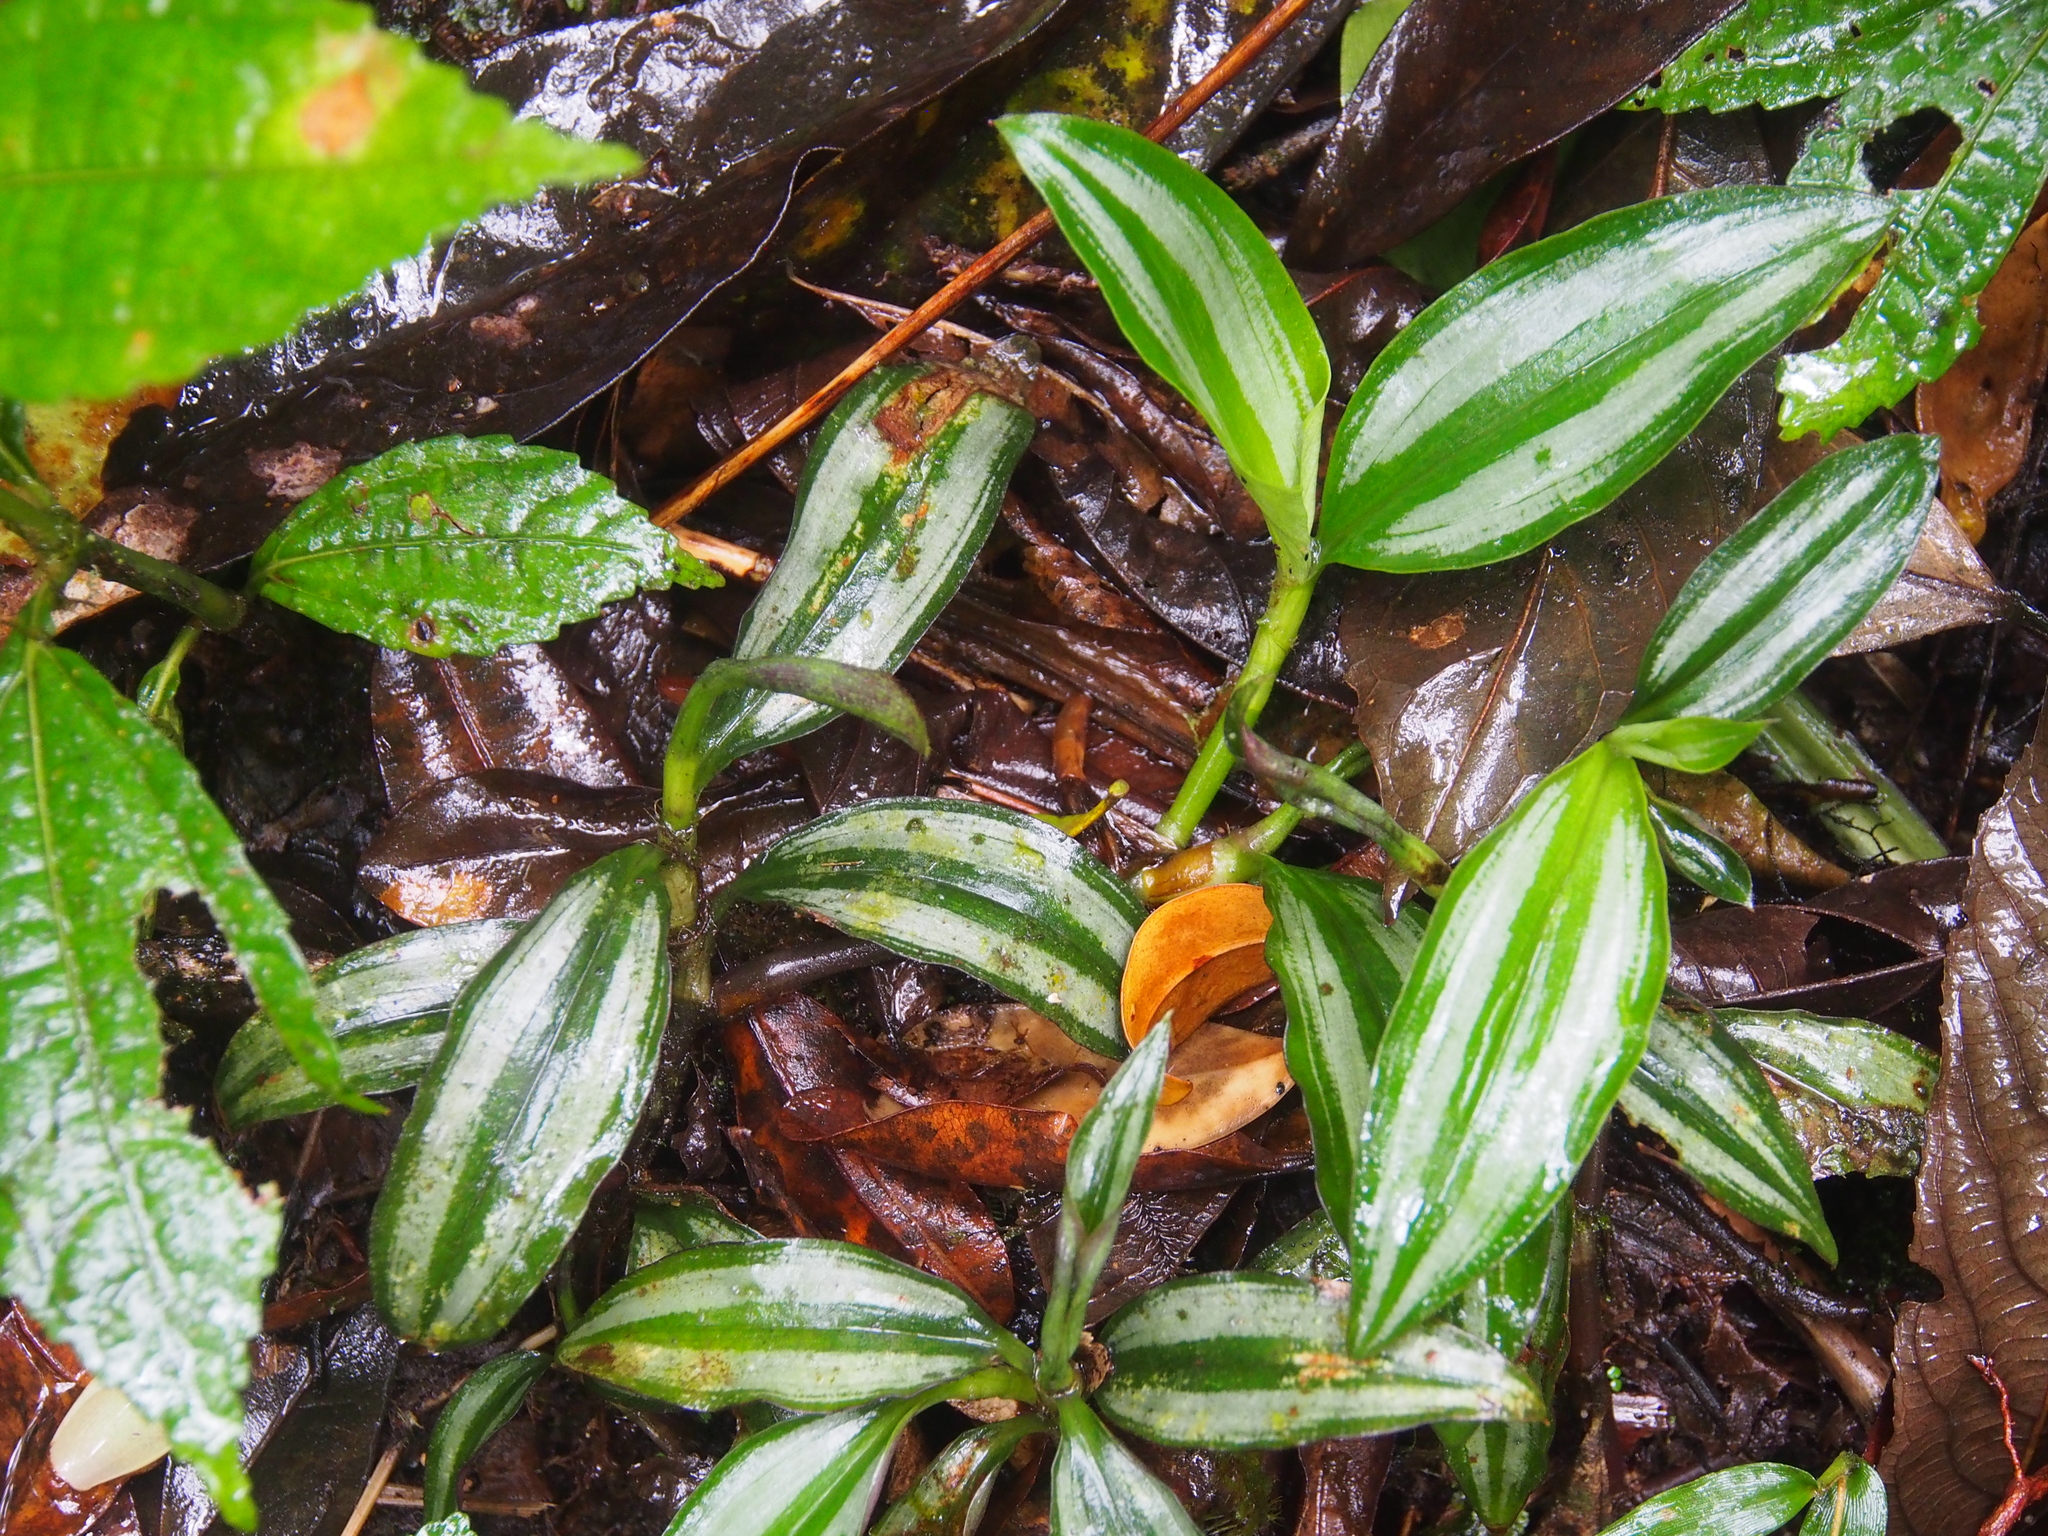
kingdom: Plantae
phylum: Tracheophyta
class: Liliopsida
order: Commelinales
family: Commelinaceae
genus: Tradescantia
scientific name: Tradescantia zebrina
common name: Inchplant
